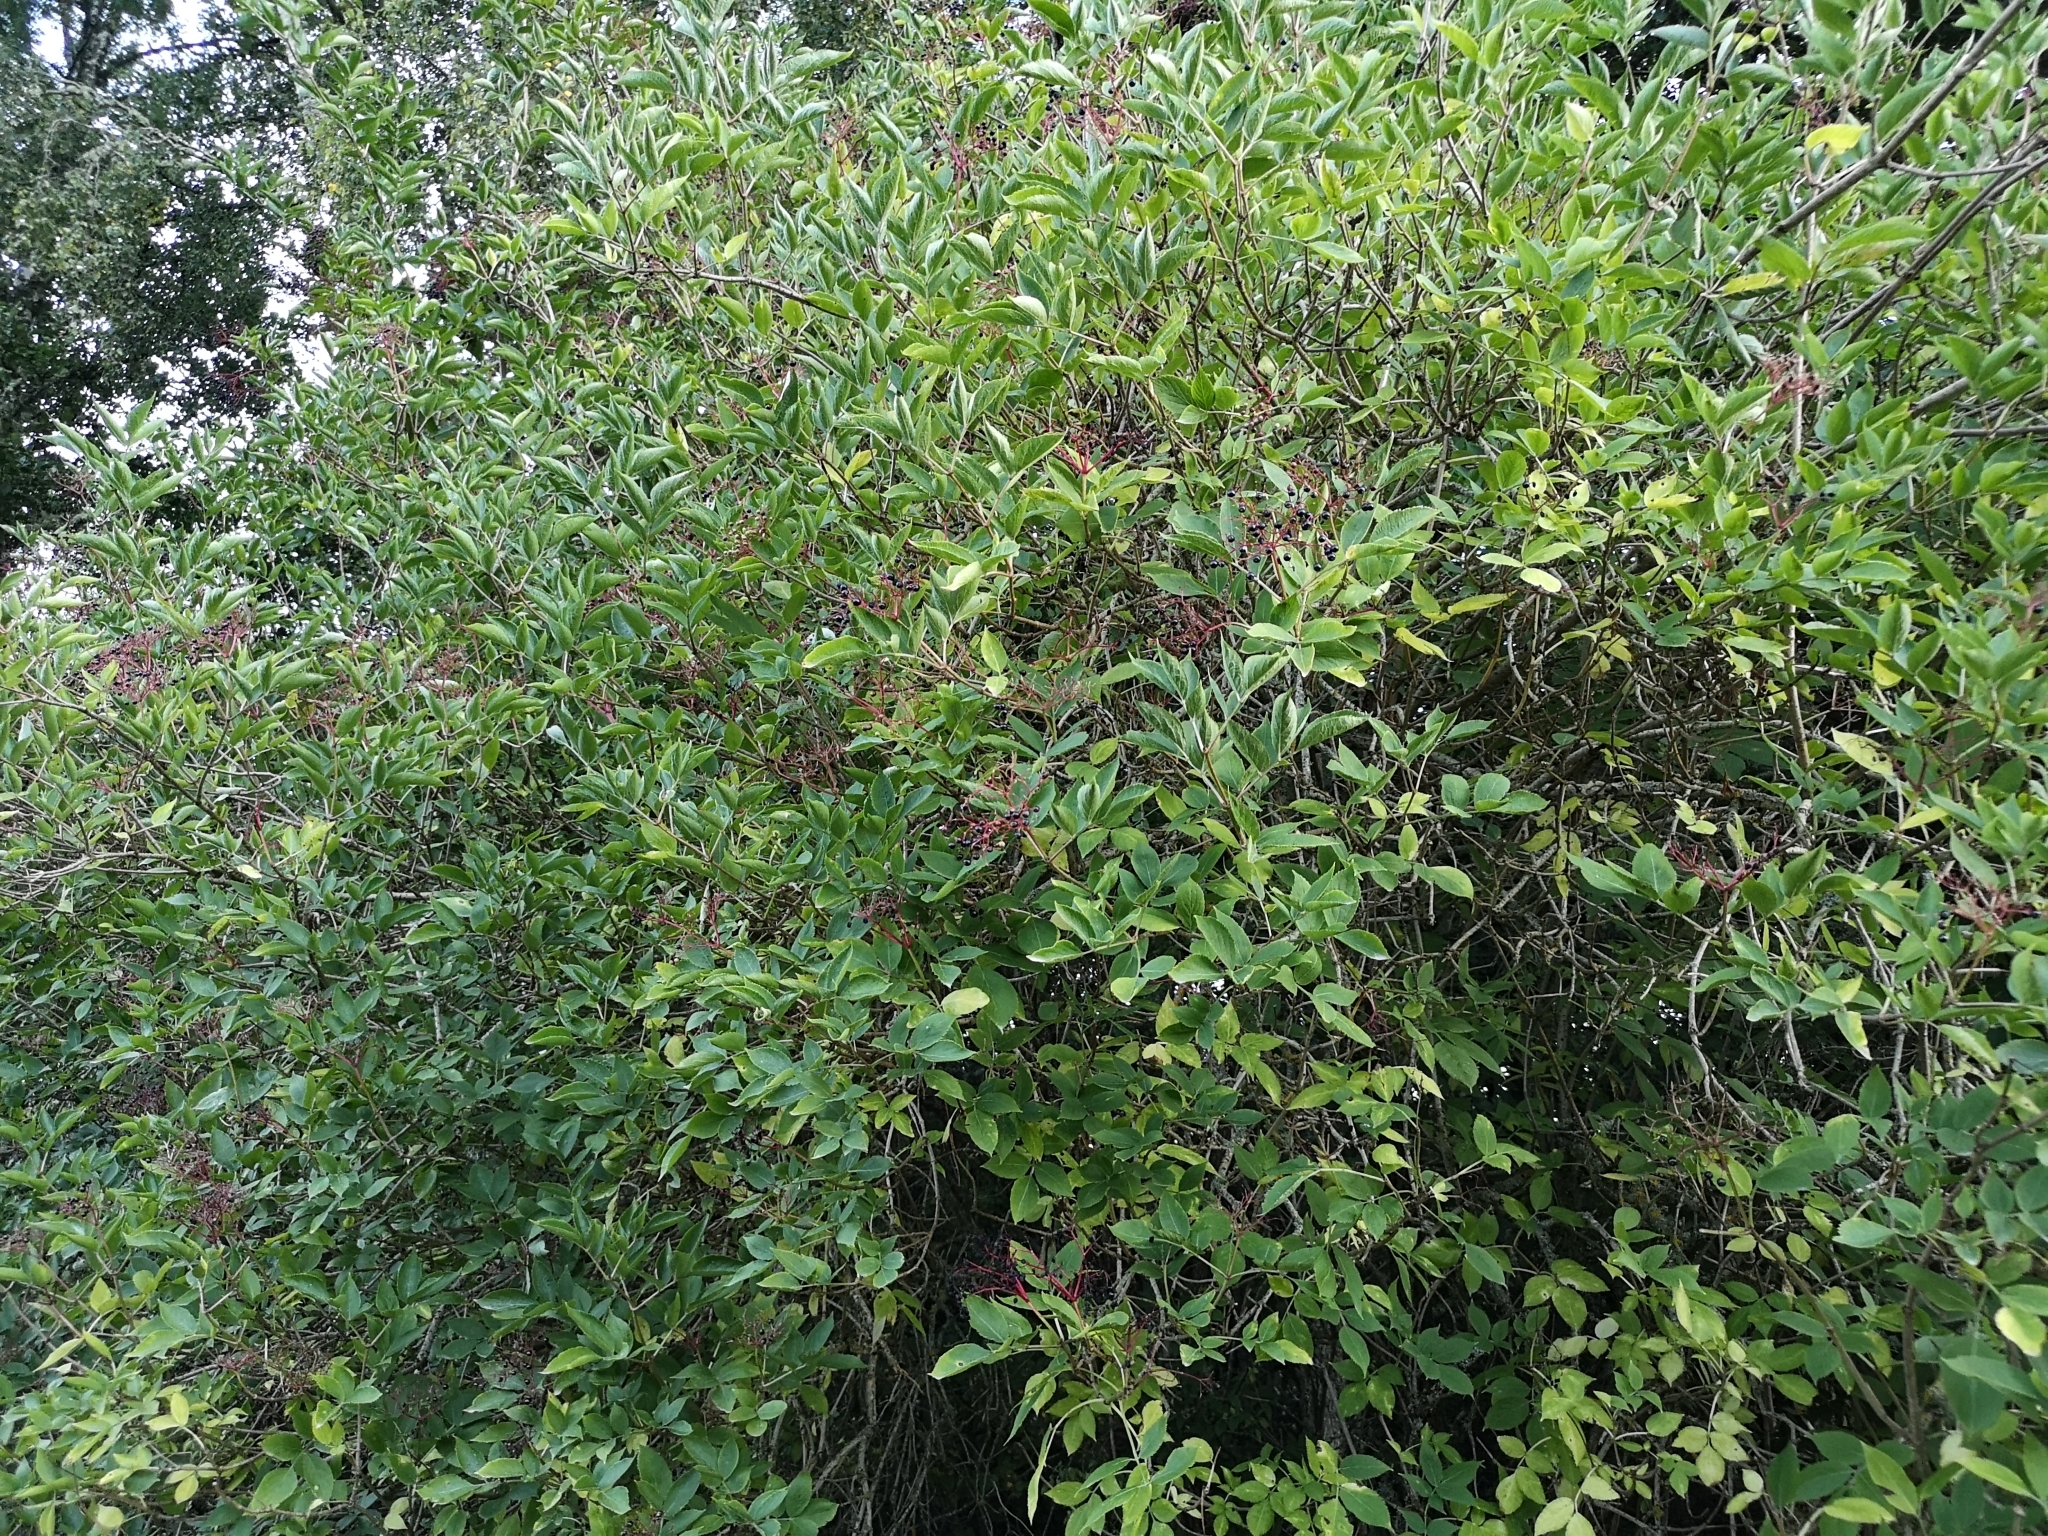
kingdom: Plantae
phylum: Tracheophyta
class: Magnoliopsida
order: Dipsacales
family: Viburnaceae
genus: Sambucus
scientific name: Sambucus nigra
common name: Elder
